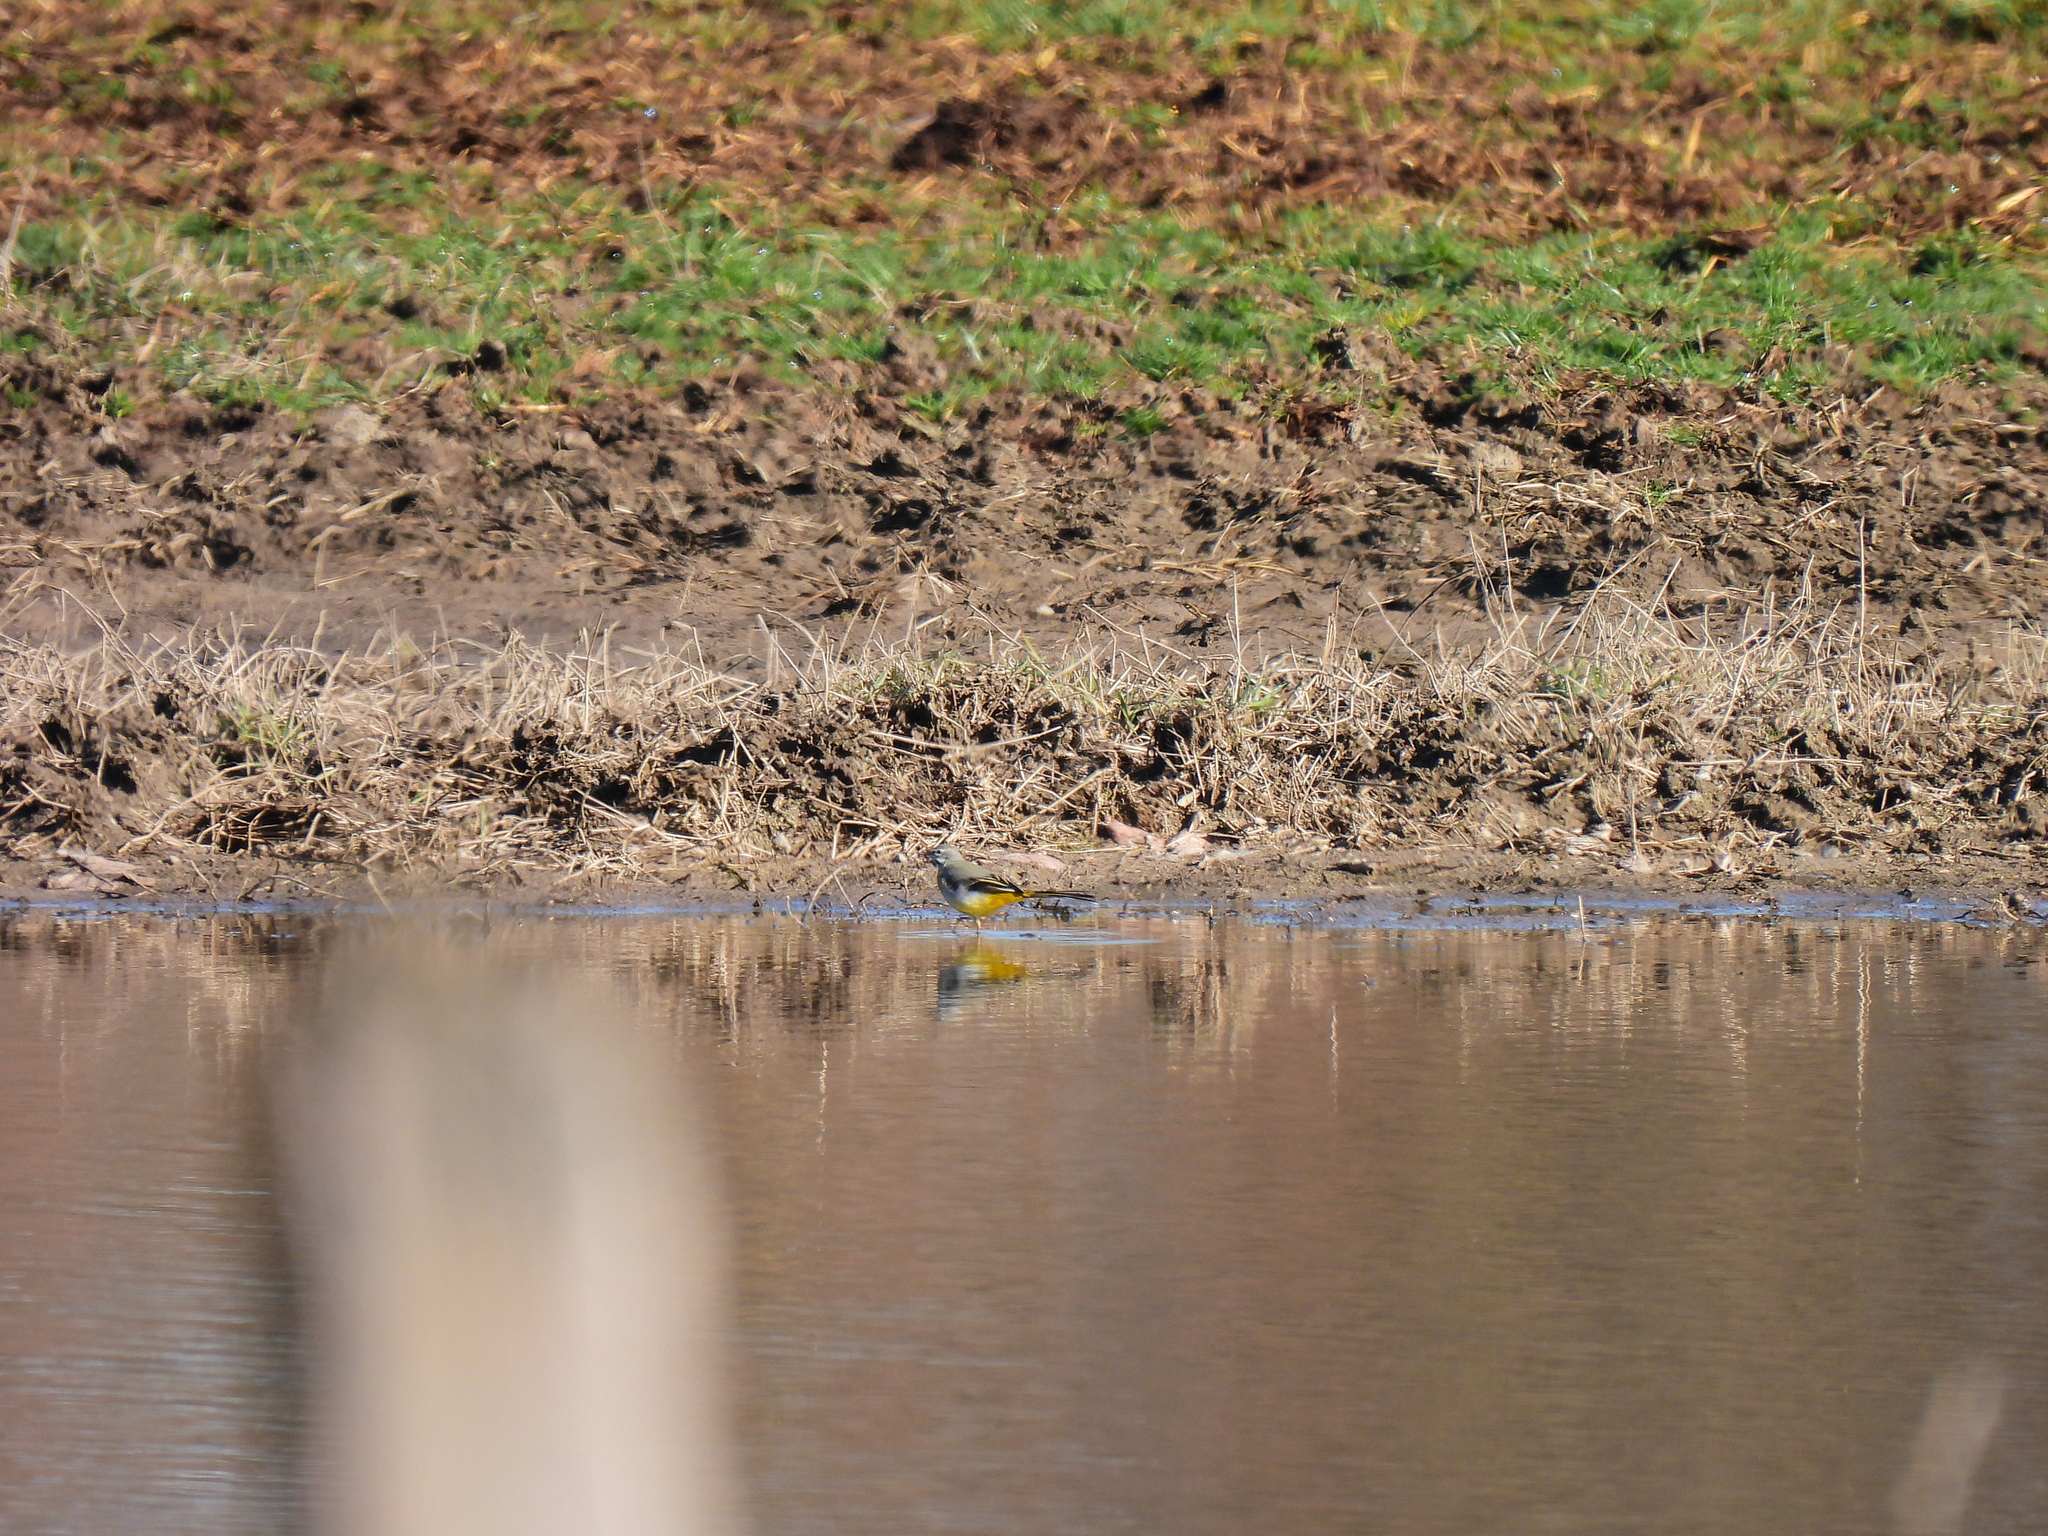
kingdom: Animalia
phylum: Chordata
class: Aves
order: Passeriformes
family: Motacillidae
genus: Motacilla
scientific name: Motacilla cinerea
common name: Grey wagtail
